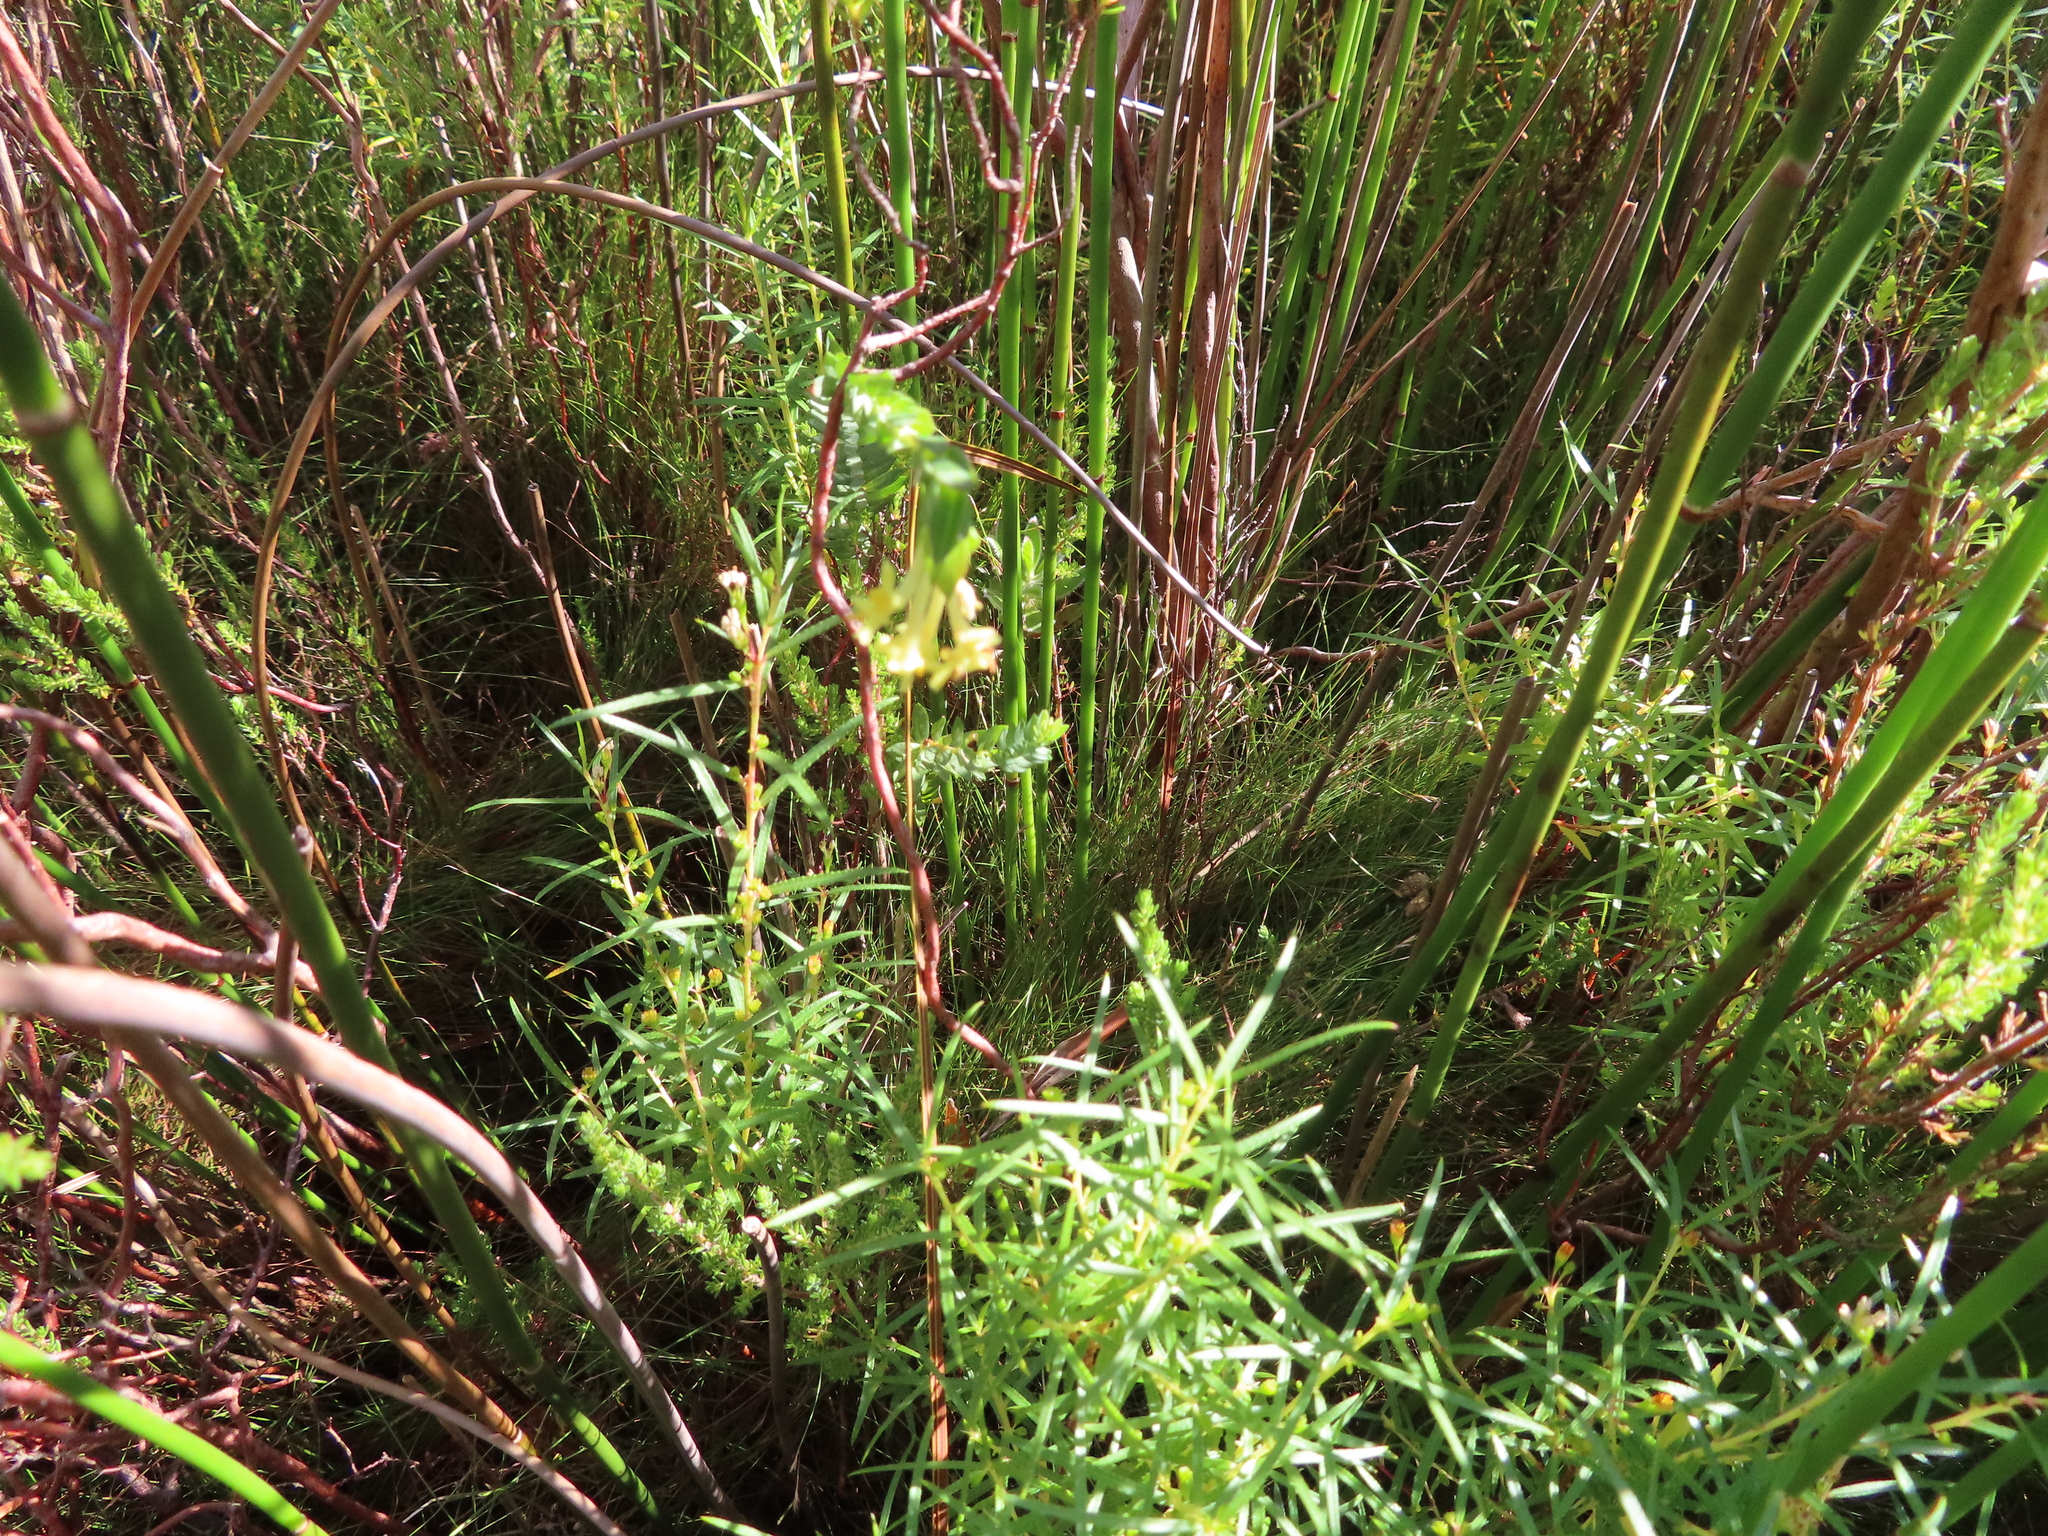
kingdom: Plantae
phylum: Tracheophyta
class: Magnoliopsida
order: Malvales
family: Thymelaeaceae
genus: Gnidia
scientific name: Gnidia oppositifolia
